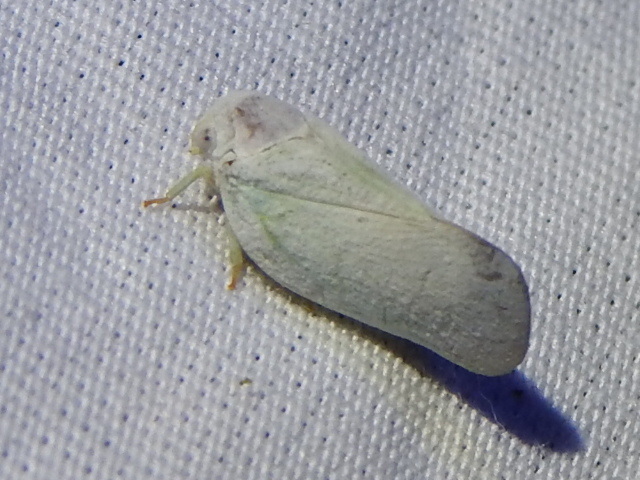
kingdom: Animalia
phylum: Arthropoda
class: Insecta
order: Hemiptera
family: Flatidae
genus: Flatormenis
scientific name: Flatormenis saucia
